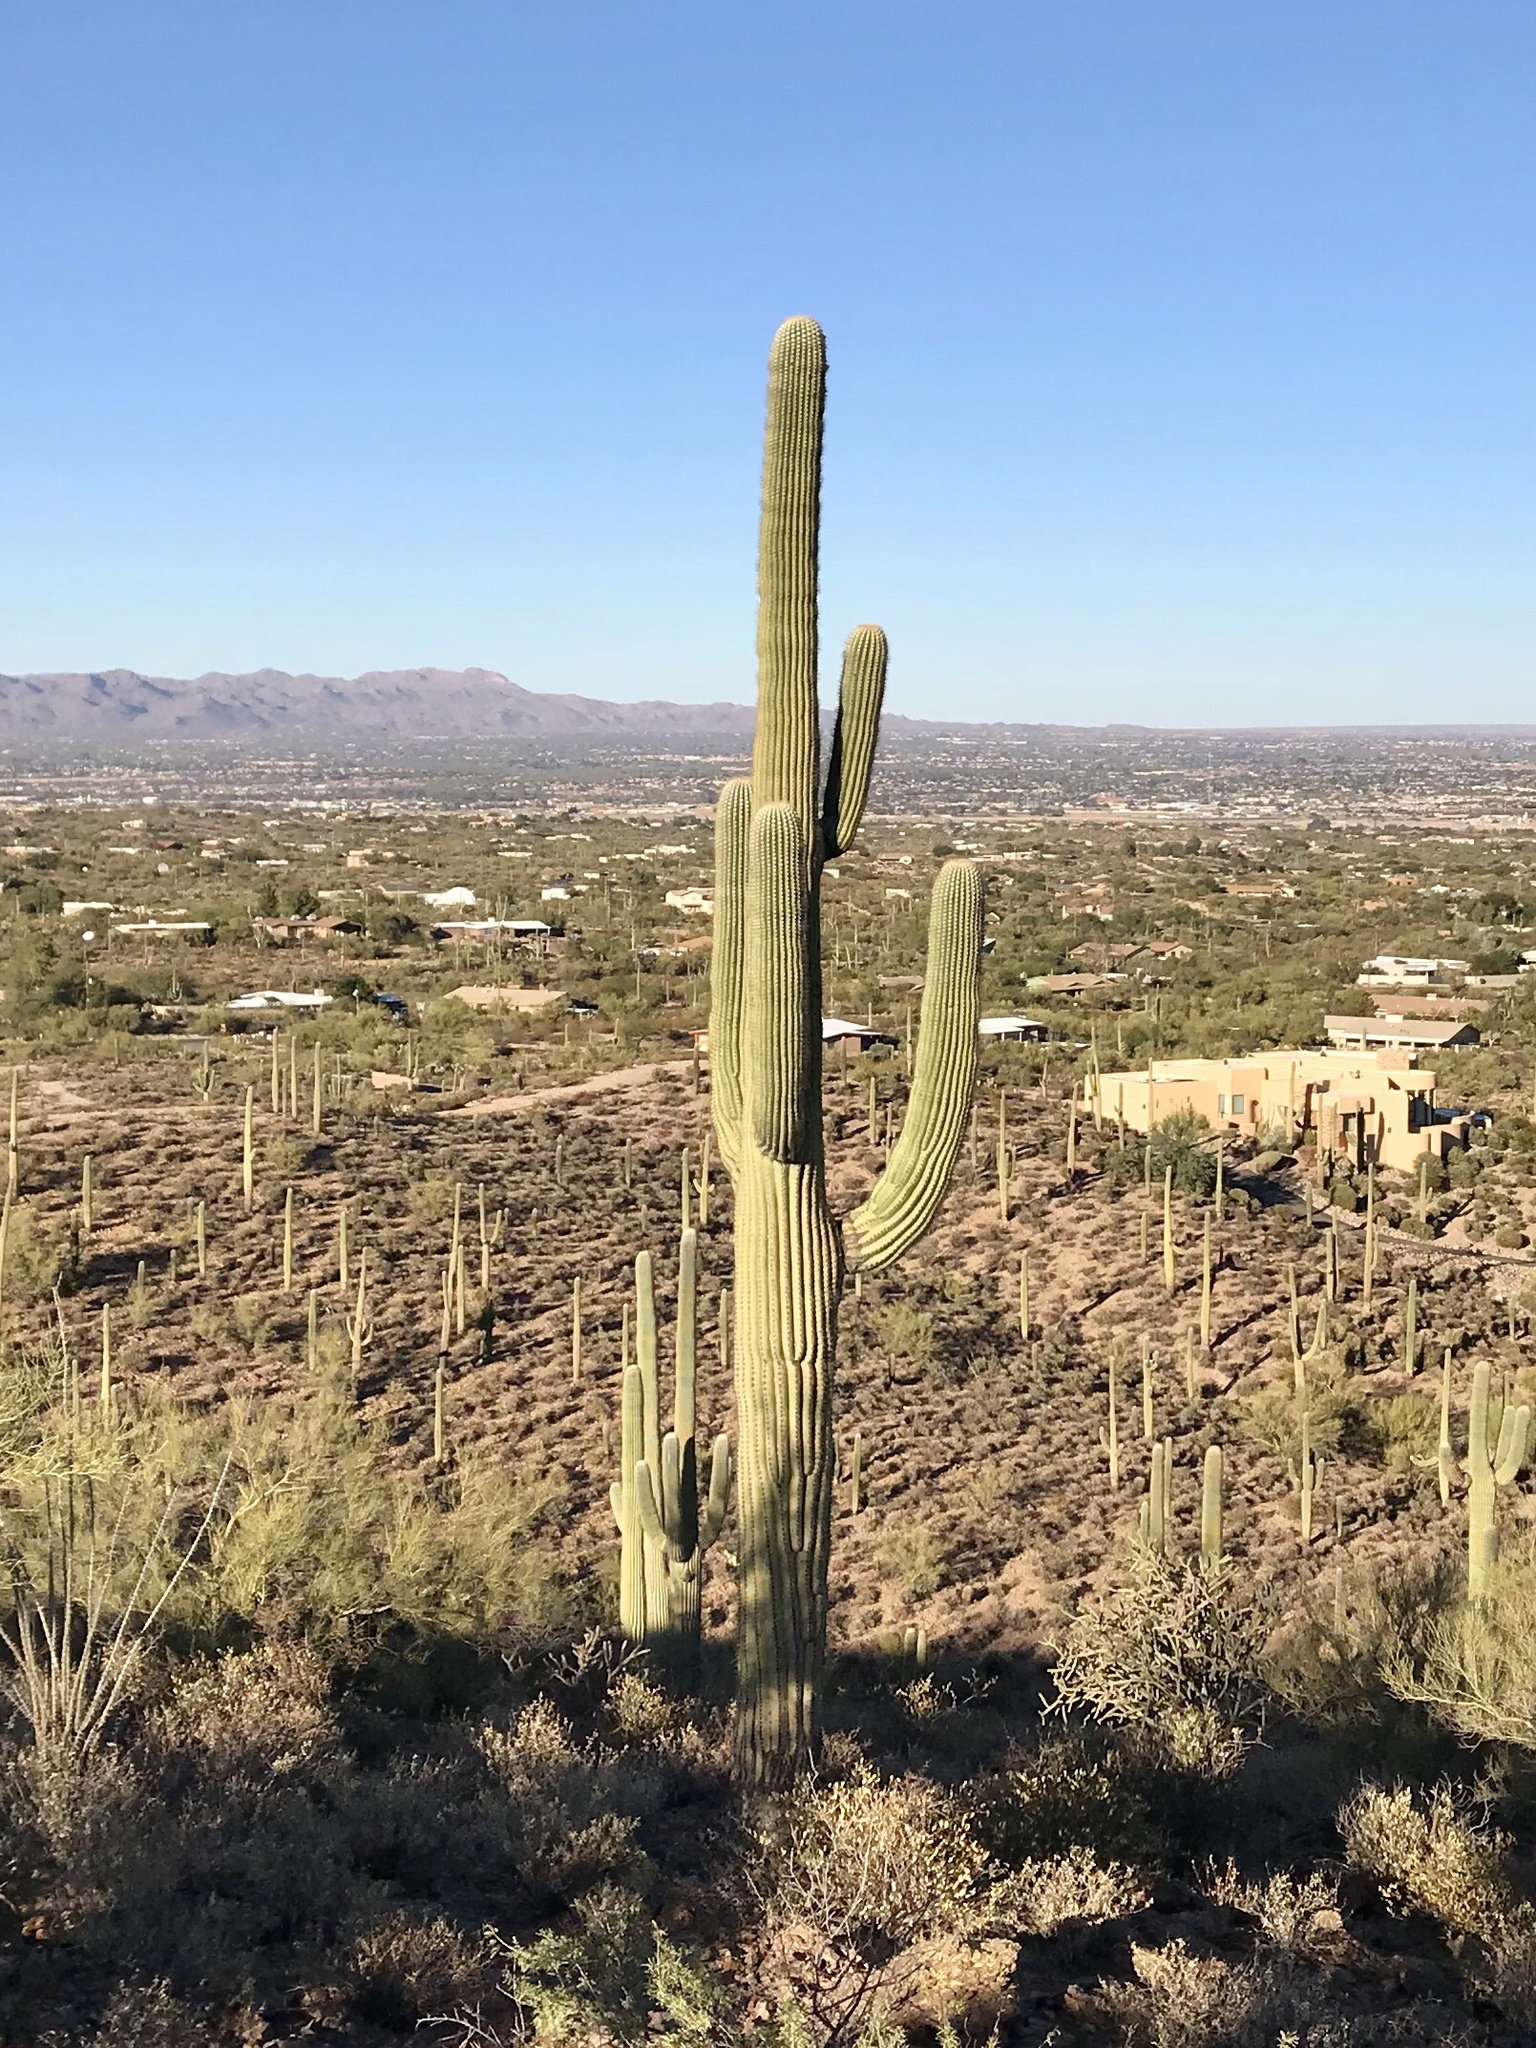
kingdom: Plantae
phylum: Tracheophyta
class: Magnoliopsida
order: Caryophyllales
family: Cactaceae
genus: Carnegiea
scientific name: Carnegiea gigantea
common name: Saguaro
